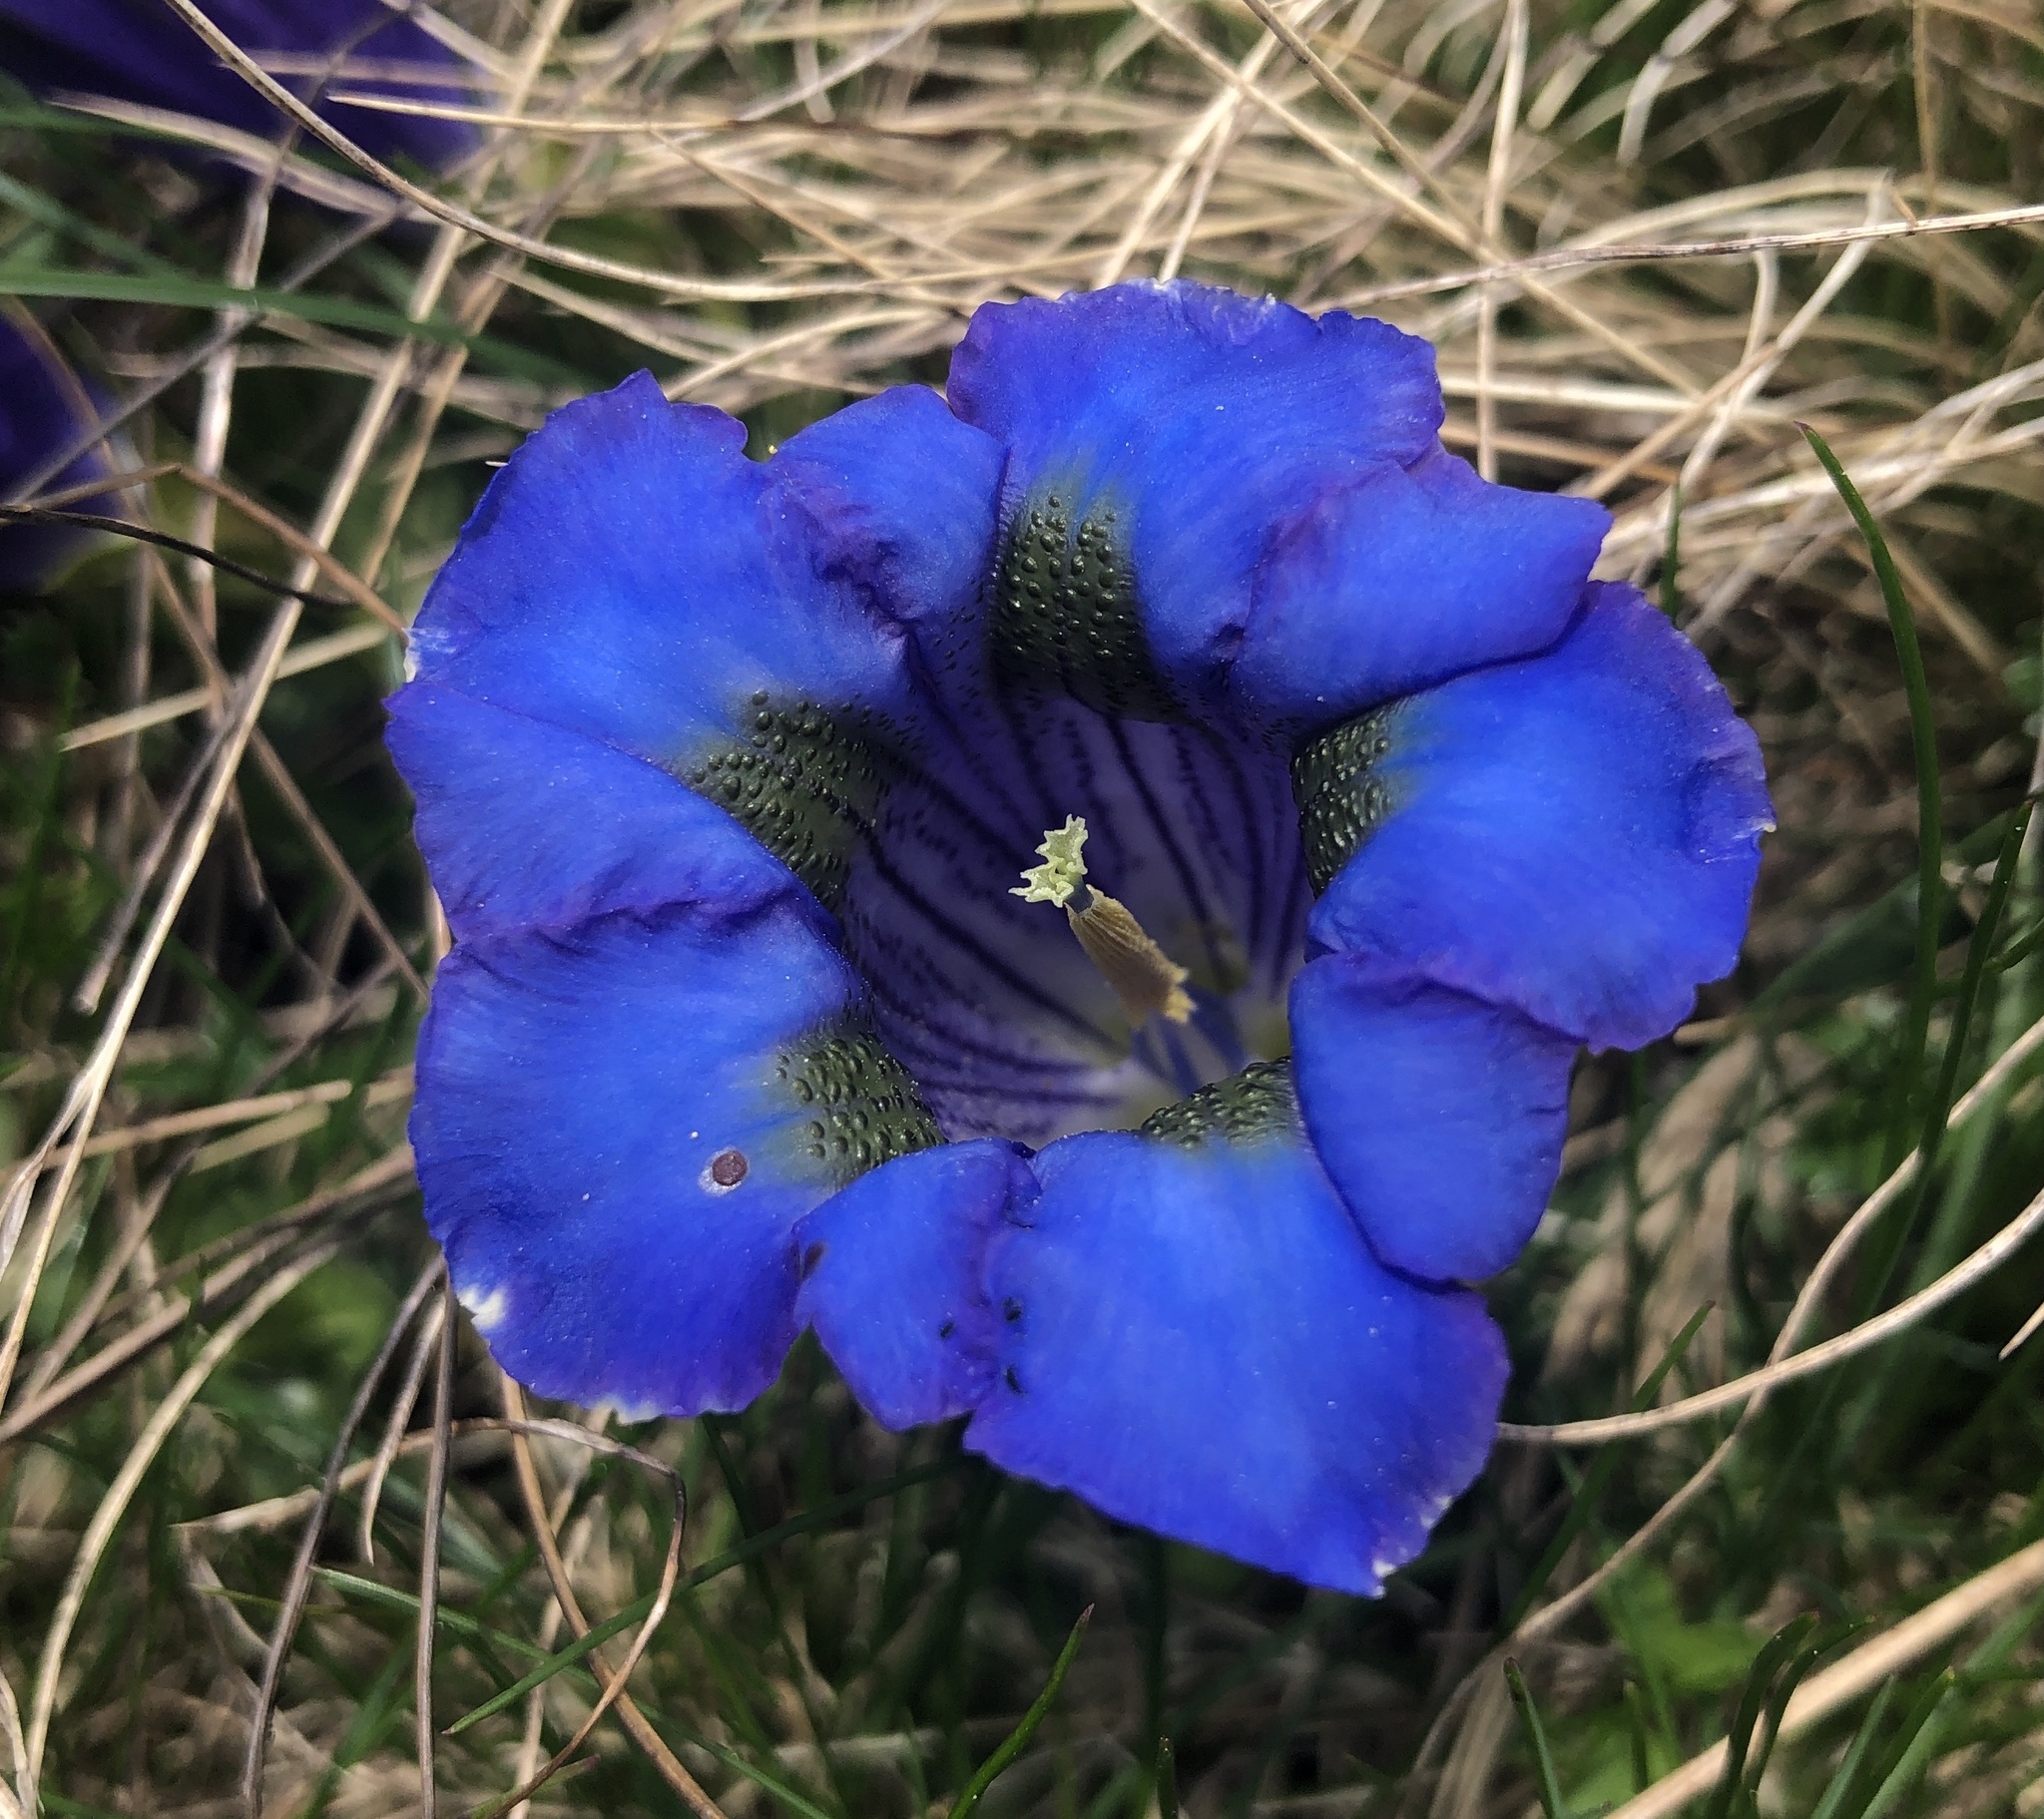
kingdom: Plantae
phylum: Tracheophyta
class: Magnoliopsida
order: Gentianales
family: Gentianaceae
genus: Gentiana
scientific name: Gentiana acaulis
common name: Trumpet gentian
